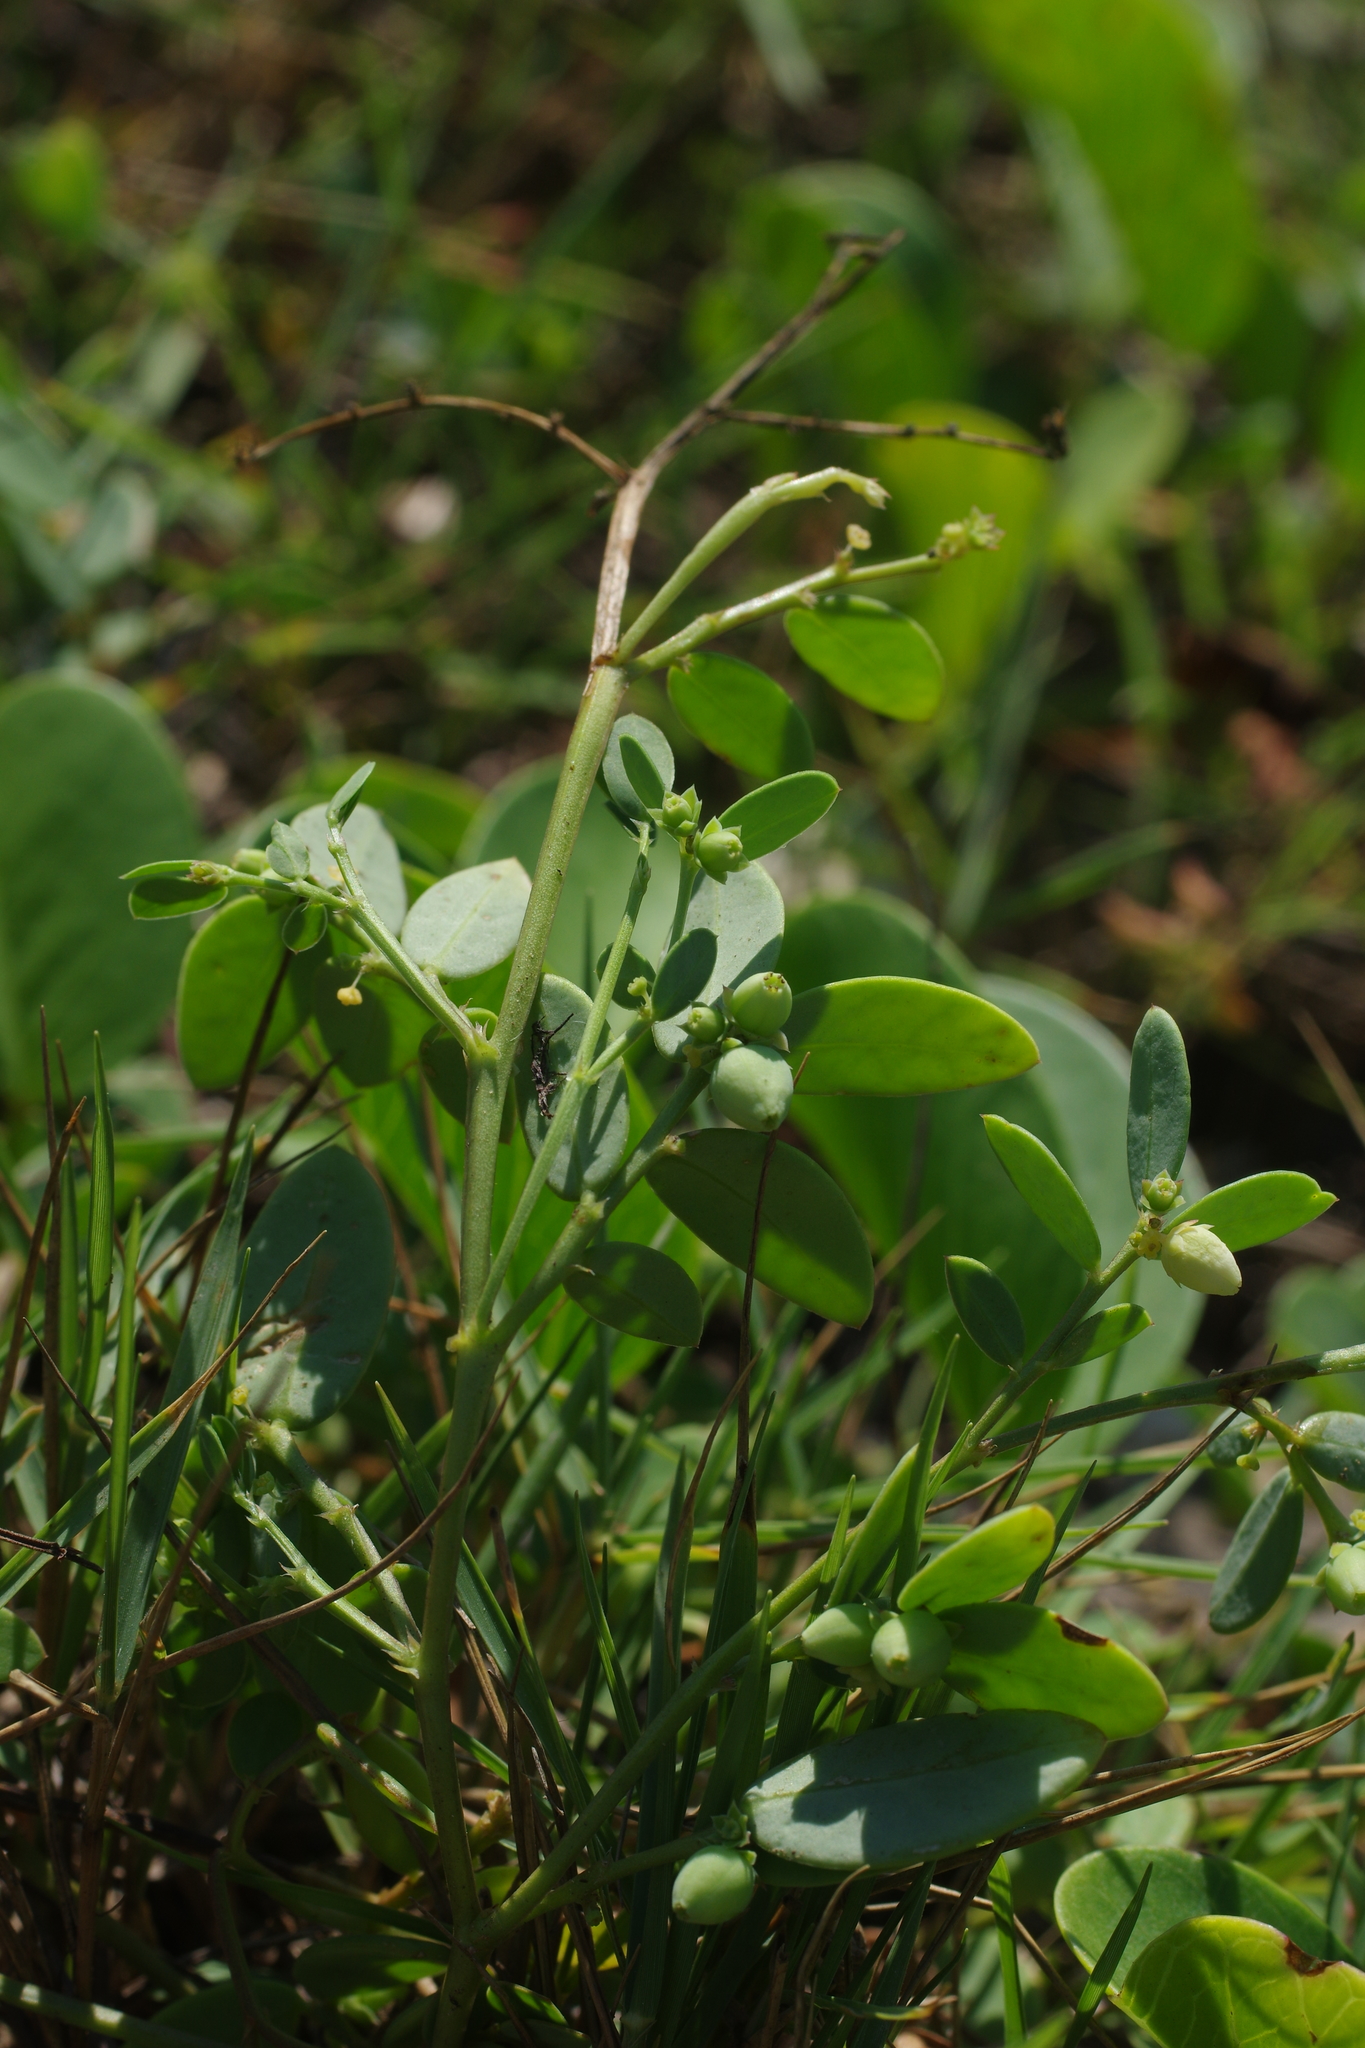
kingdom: Plantae
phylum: Tracheophyta
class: Magnoliopsida
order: Malpighiales
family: Phyllanthaceae
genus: Synostemon
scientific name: Synostemon bacciformis
